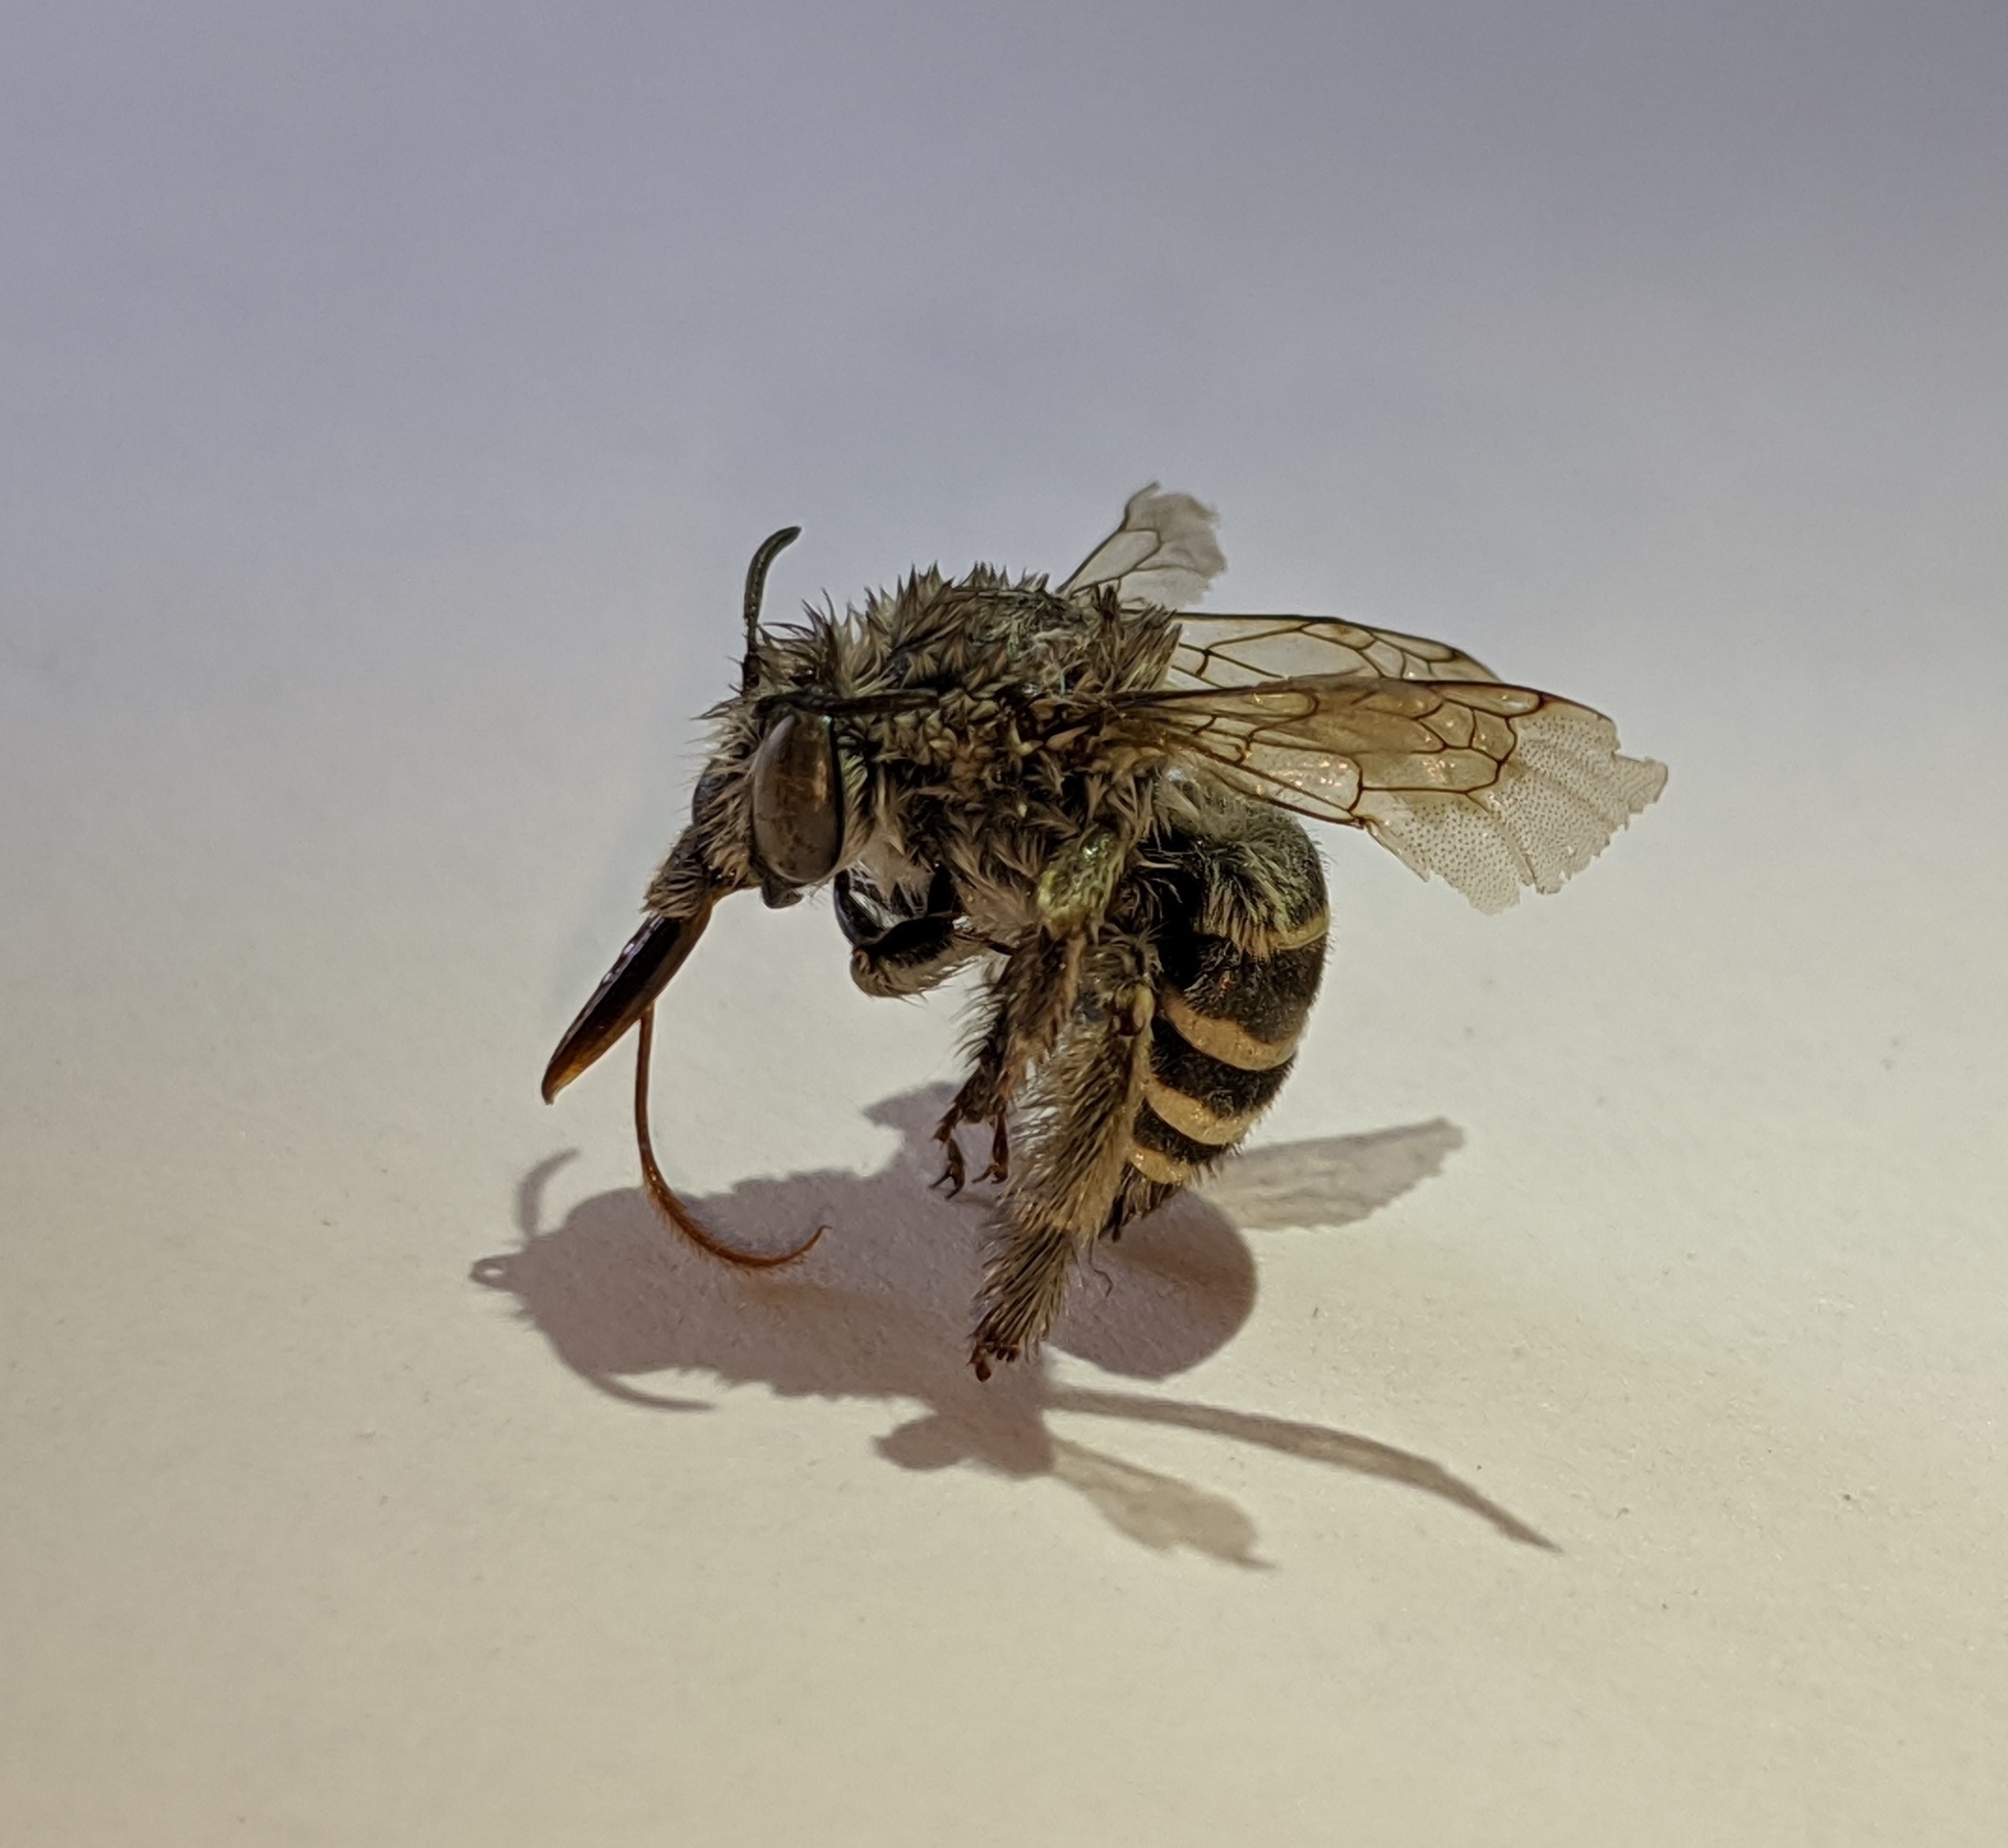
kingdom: Animalia
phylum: Arthropoda
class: Insecta
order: Hymenoptera
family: Apidae
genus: Anthophora
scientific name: Anthophora marginata
